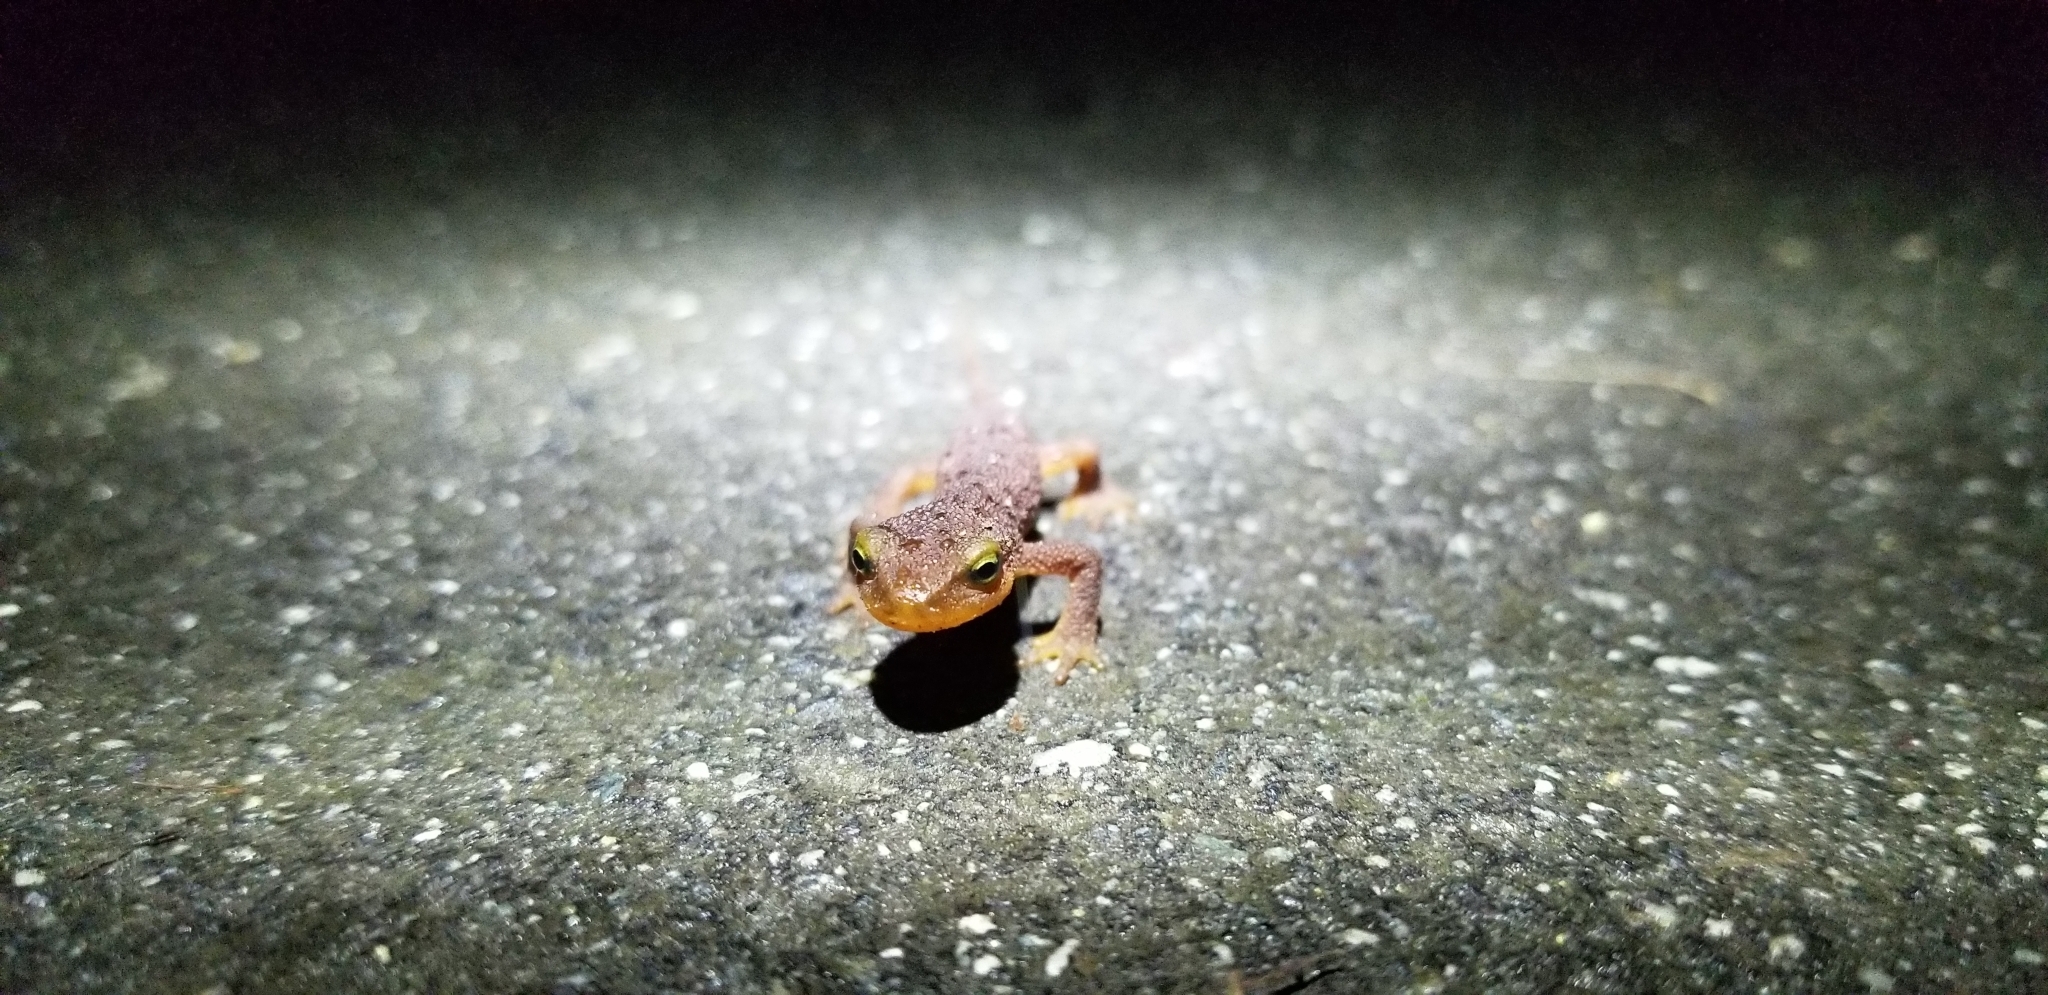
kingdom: Animalia
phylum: Chordata
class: Amphibia
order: Caudata
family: Salamandridae
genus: Taricha
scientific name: Taricha torosa
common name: California newt
